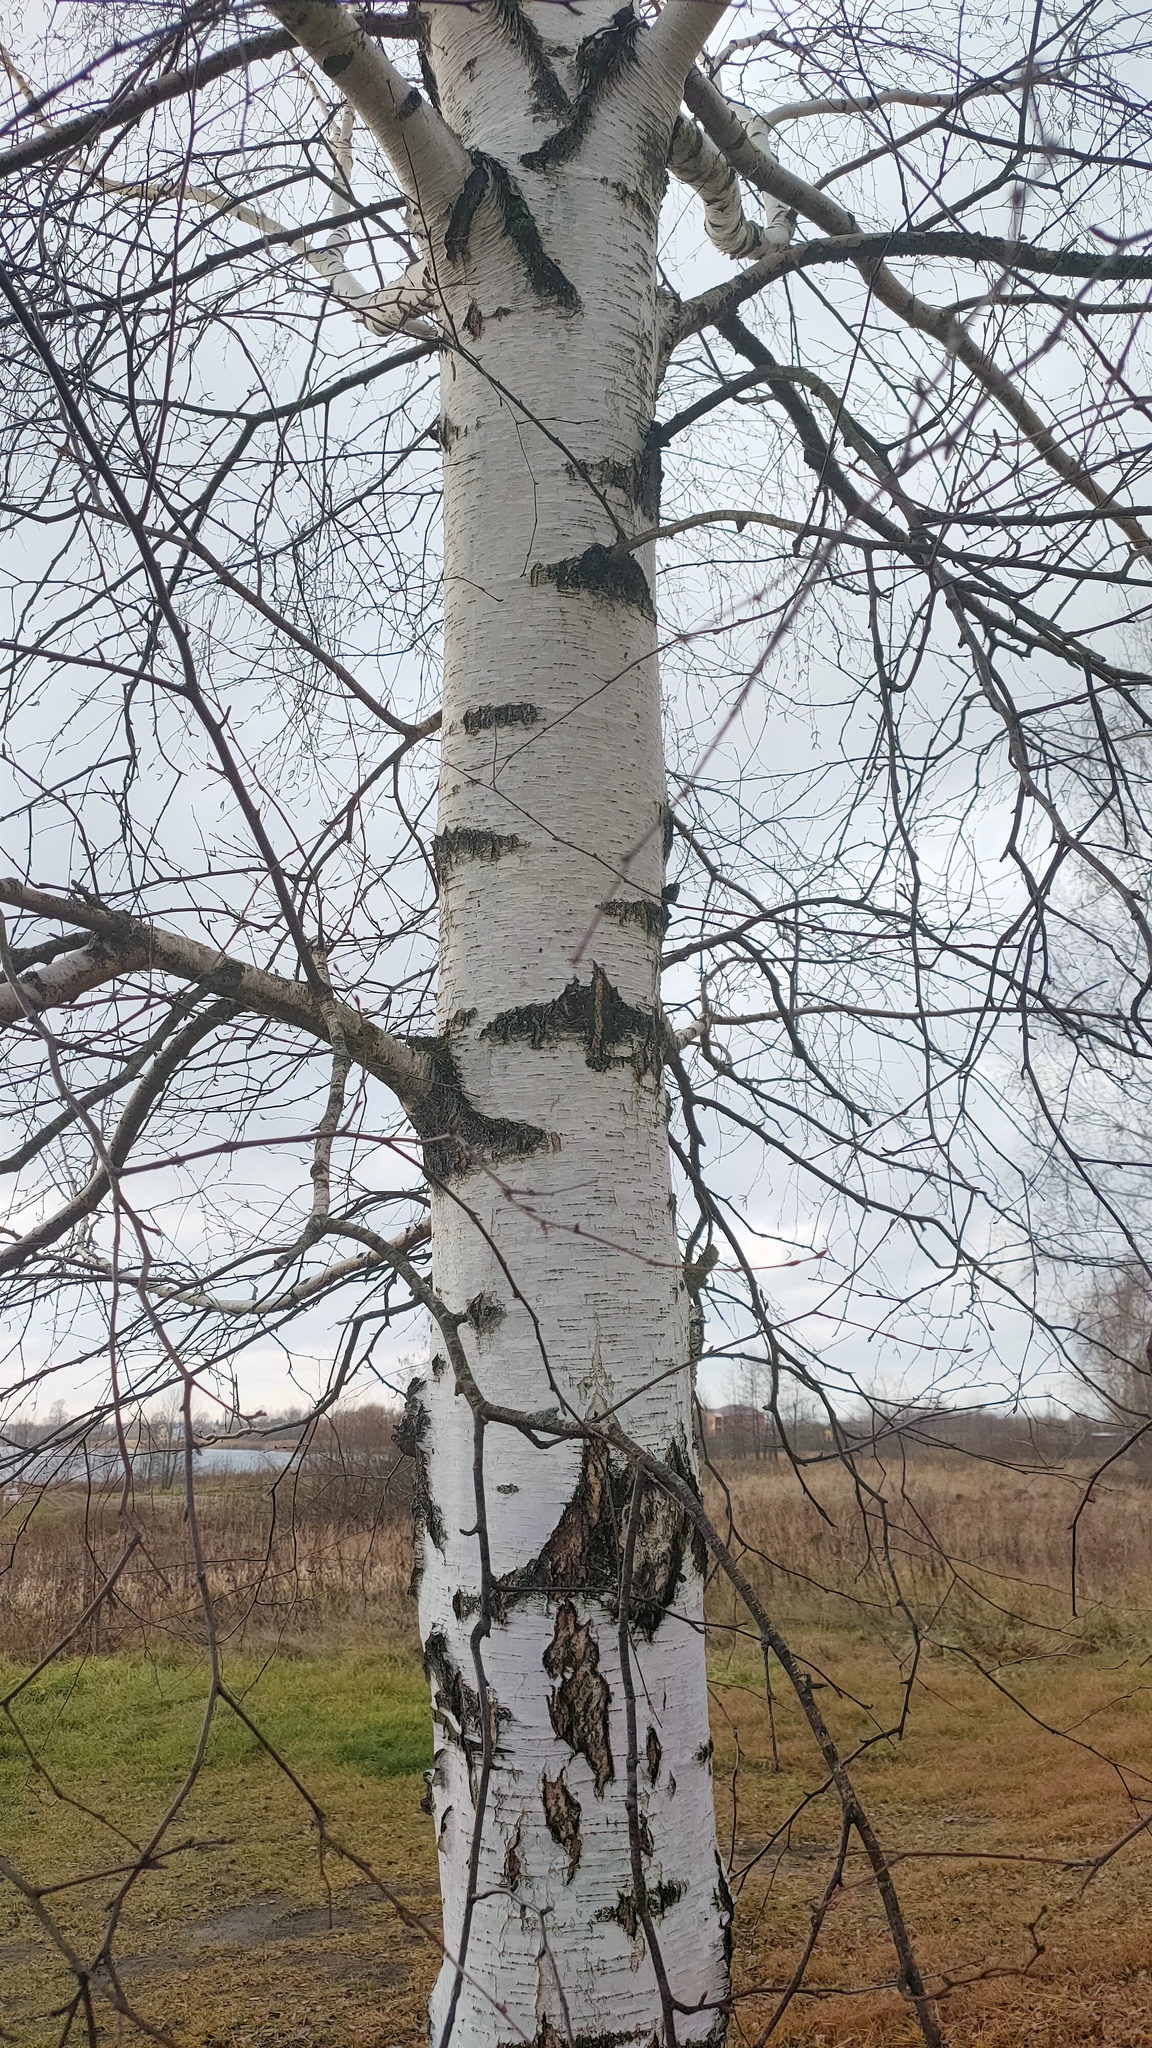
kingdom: Plantae
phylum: Tracheophyta
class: Magnoliopsida
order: Fagales
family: Betulaceae
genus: Betula
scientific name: Betula pendula
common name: Silver birch
